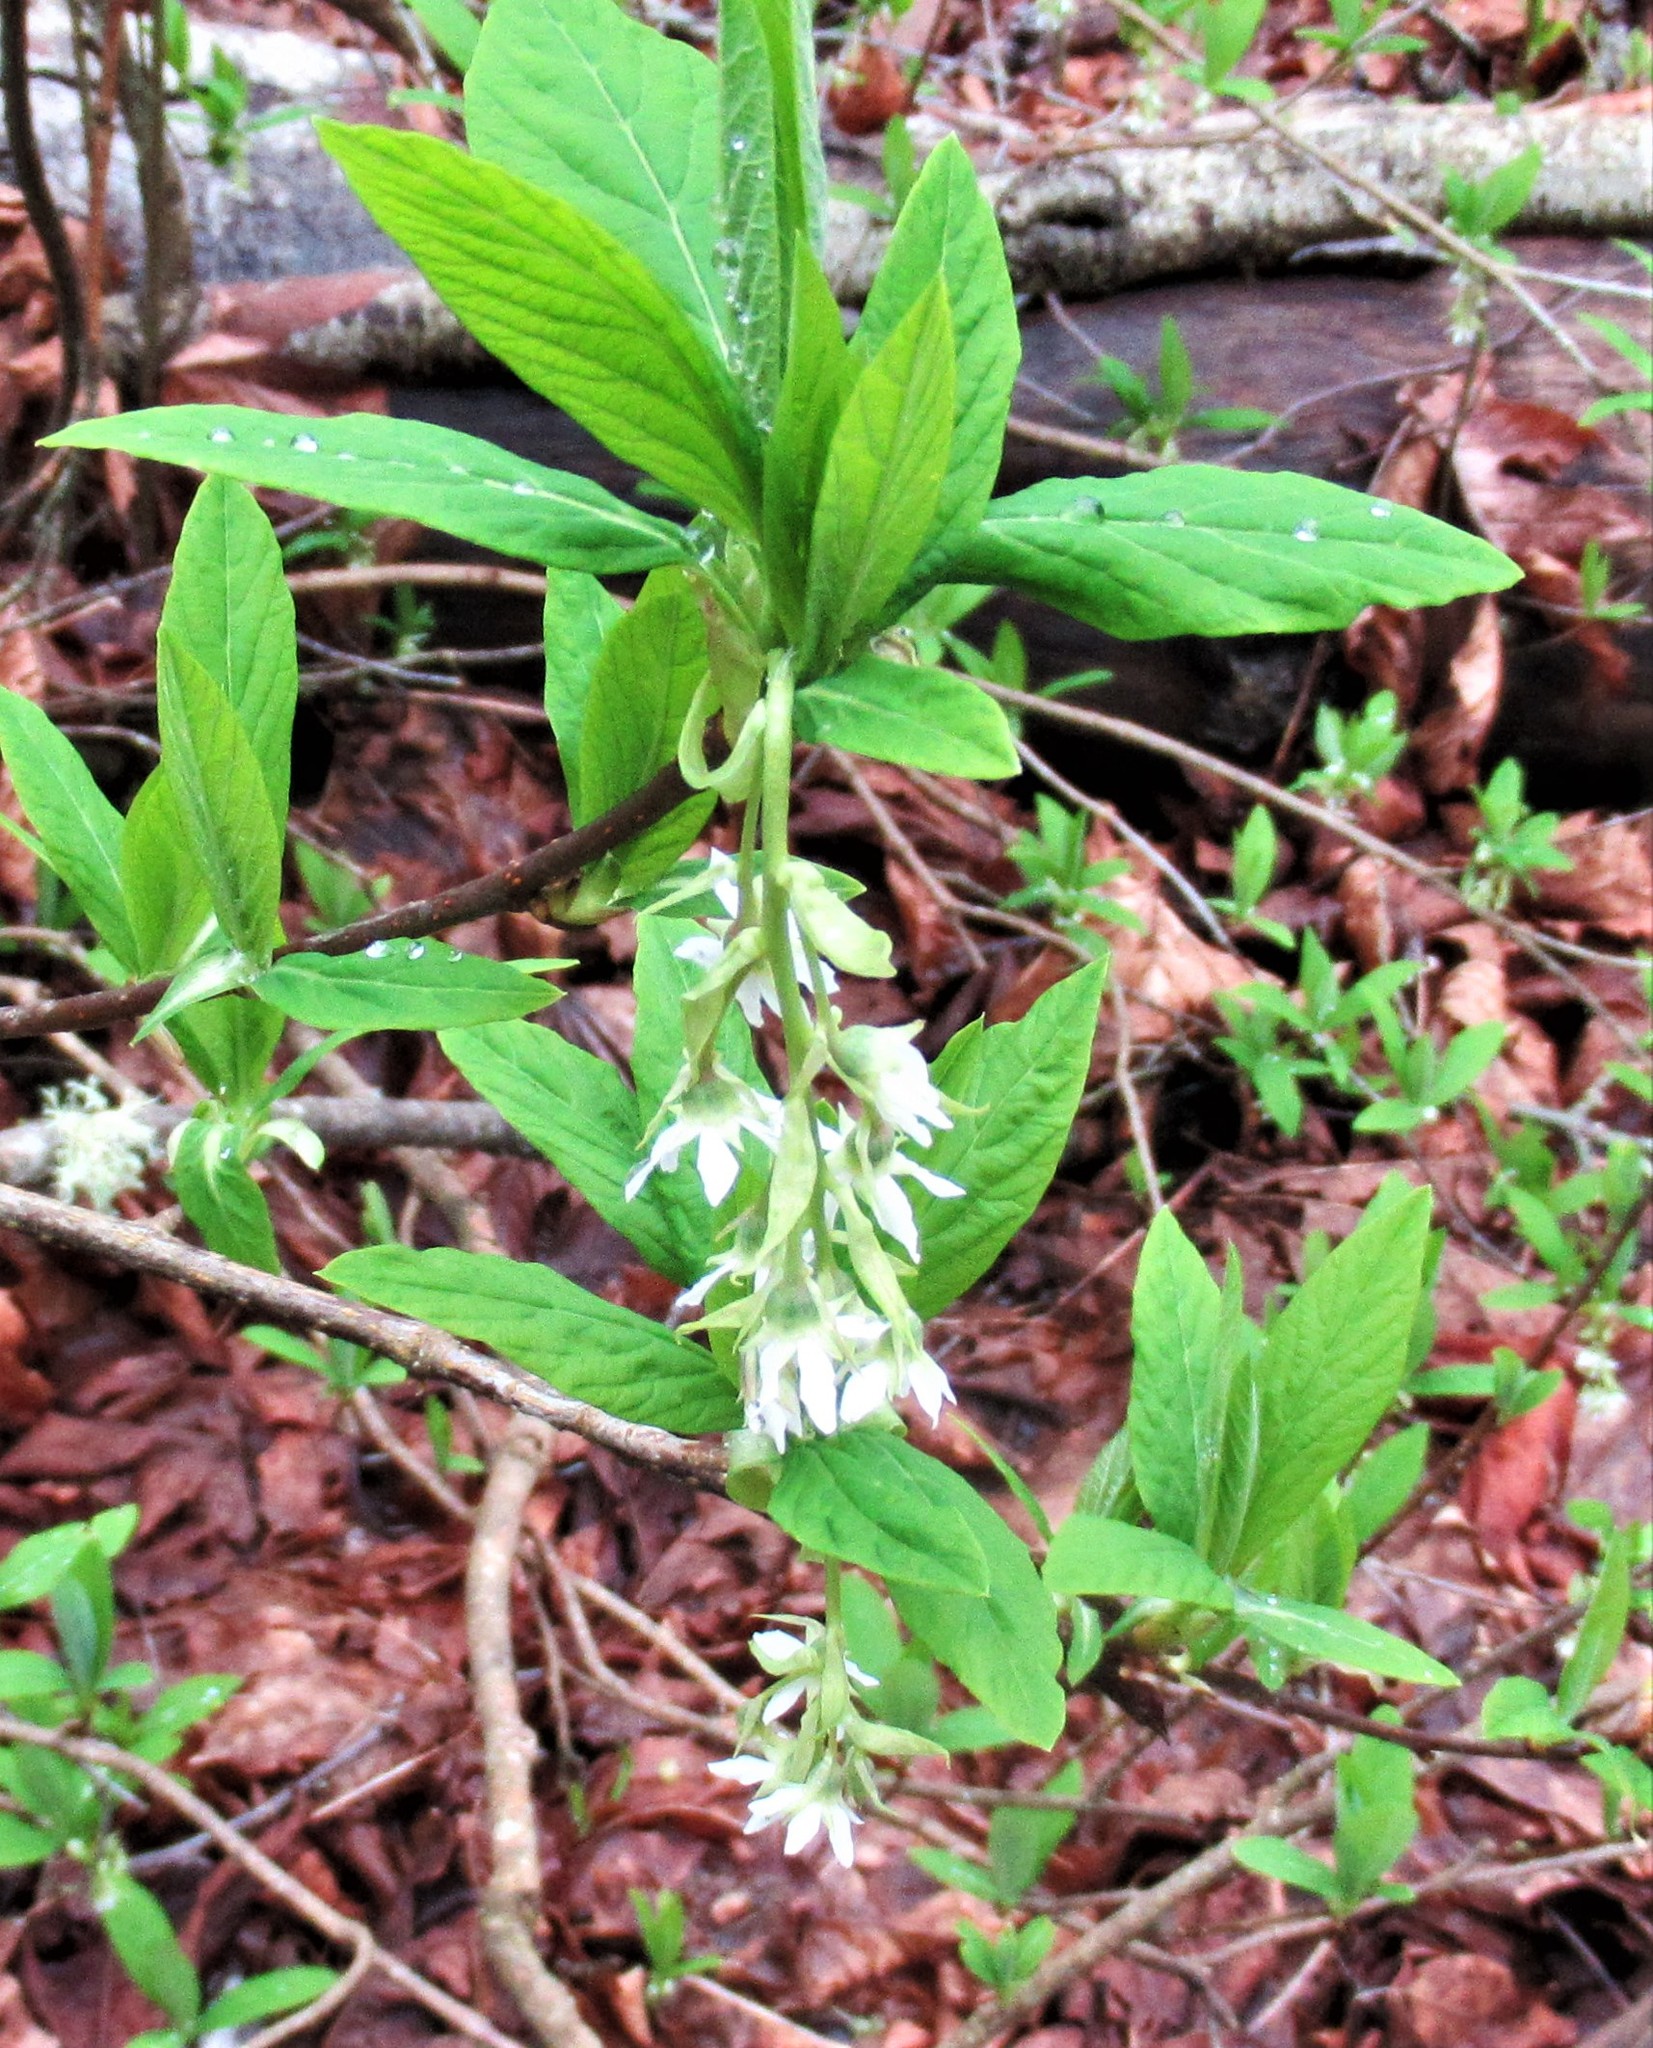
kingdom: Plantae
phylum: Tracheophyta
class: Magnoliopsida
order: Rosales
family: Rosaceae
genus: Oemleria
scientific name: Oemleria cerasiformis
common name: Osoberry
